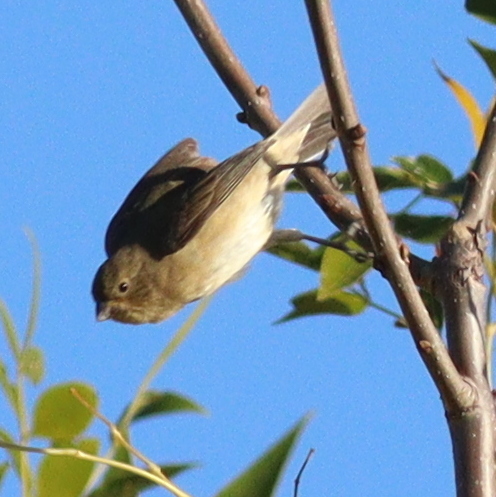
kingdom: Animalia
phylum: Chordata
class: Aves
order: Passeriformes
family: Thraupidae
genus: Sporophila
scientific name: Sporophila caerulescens
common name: Double-collared seedeater
